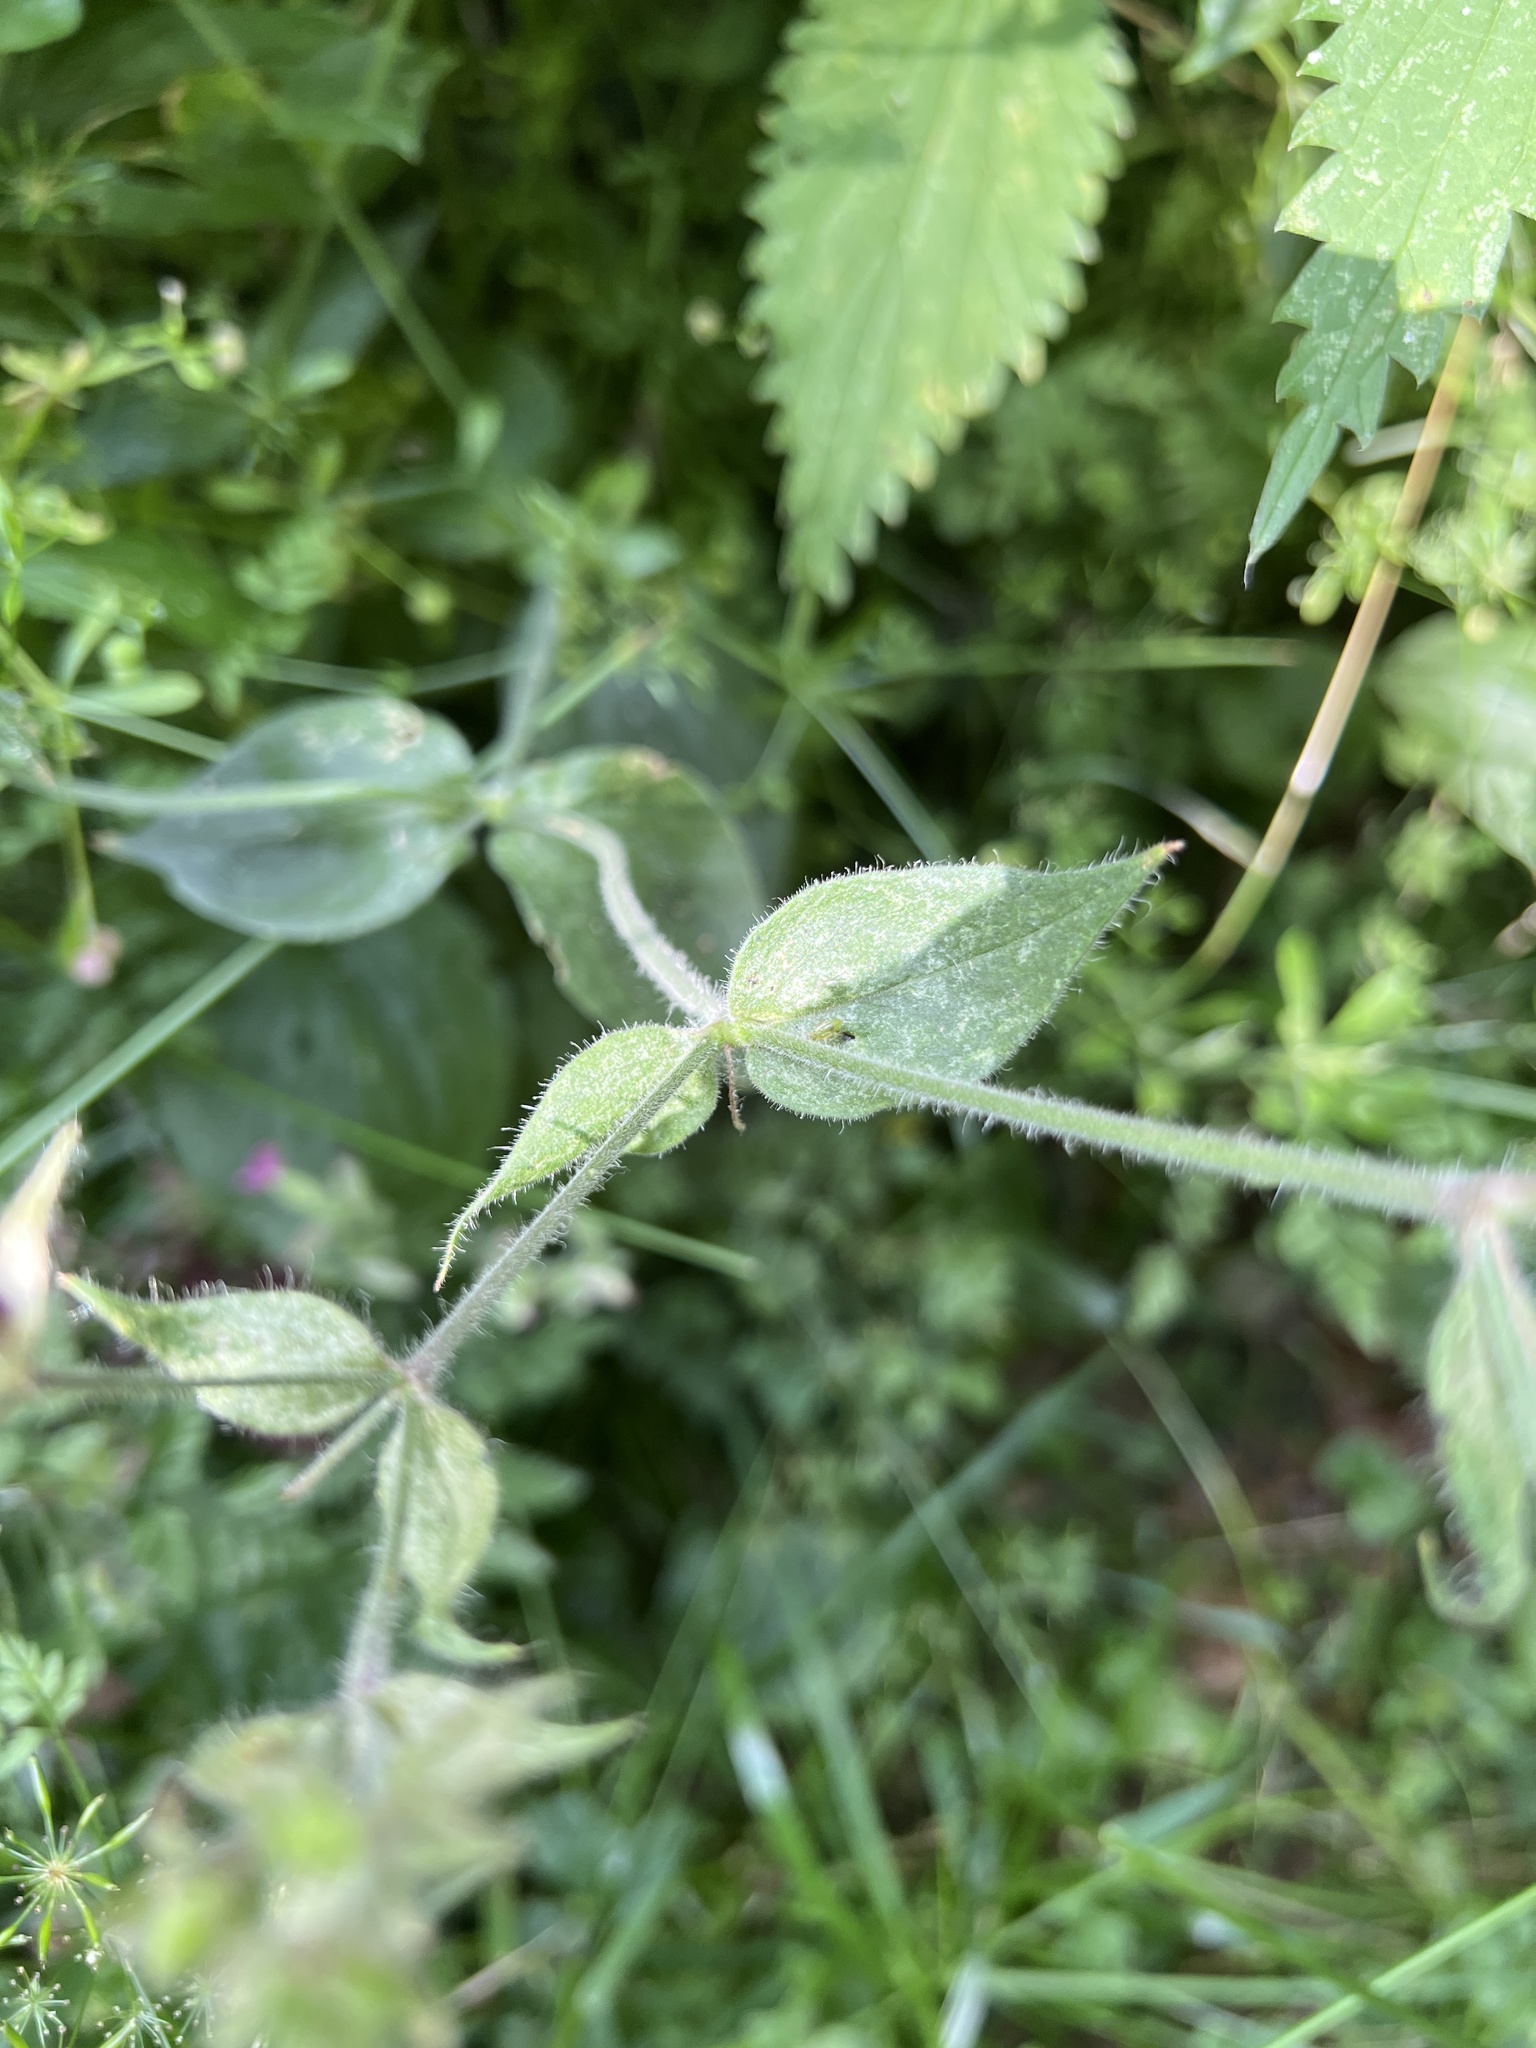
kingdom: Plantae
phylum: Tracheophyta
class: Magnoliopsida
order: Caryophyllales
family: Caryophyllaceae
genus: Silene
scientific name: Silene dioica
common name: Red campion
